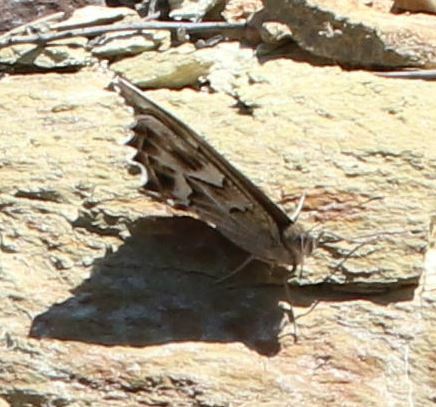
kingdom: Animalia
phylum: Arthropoda
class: Insecta
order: Lepidoptera
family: Nymphalidae
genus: Hipparchia
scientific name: Hipparchia fidia
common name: Striped grayling
